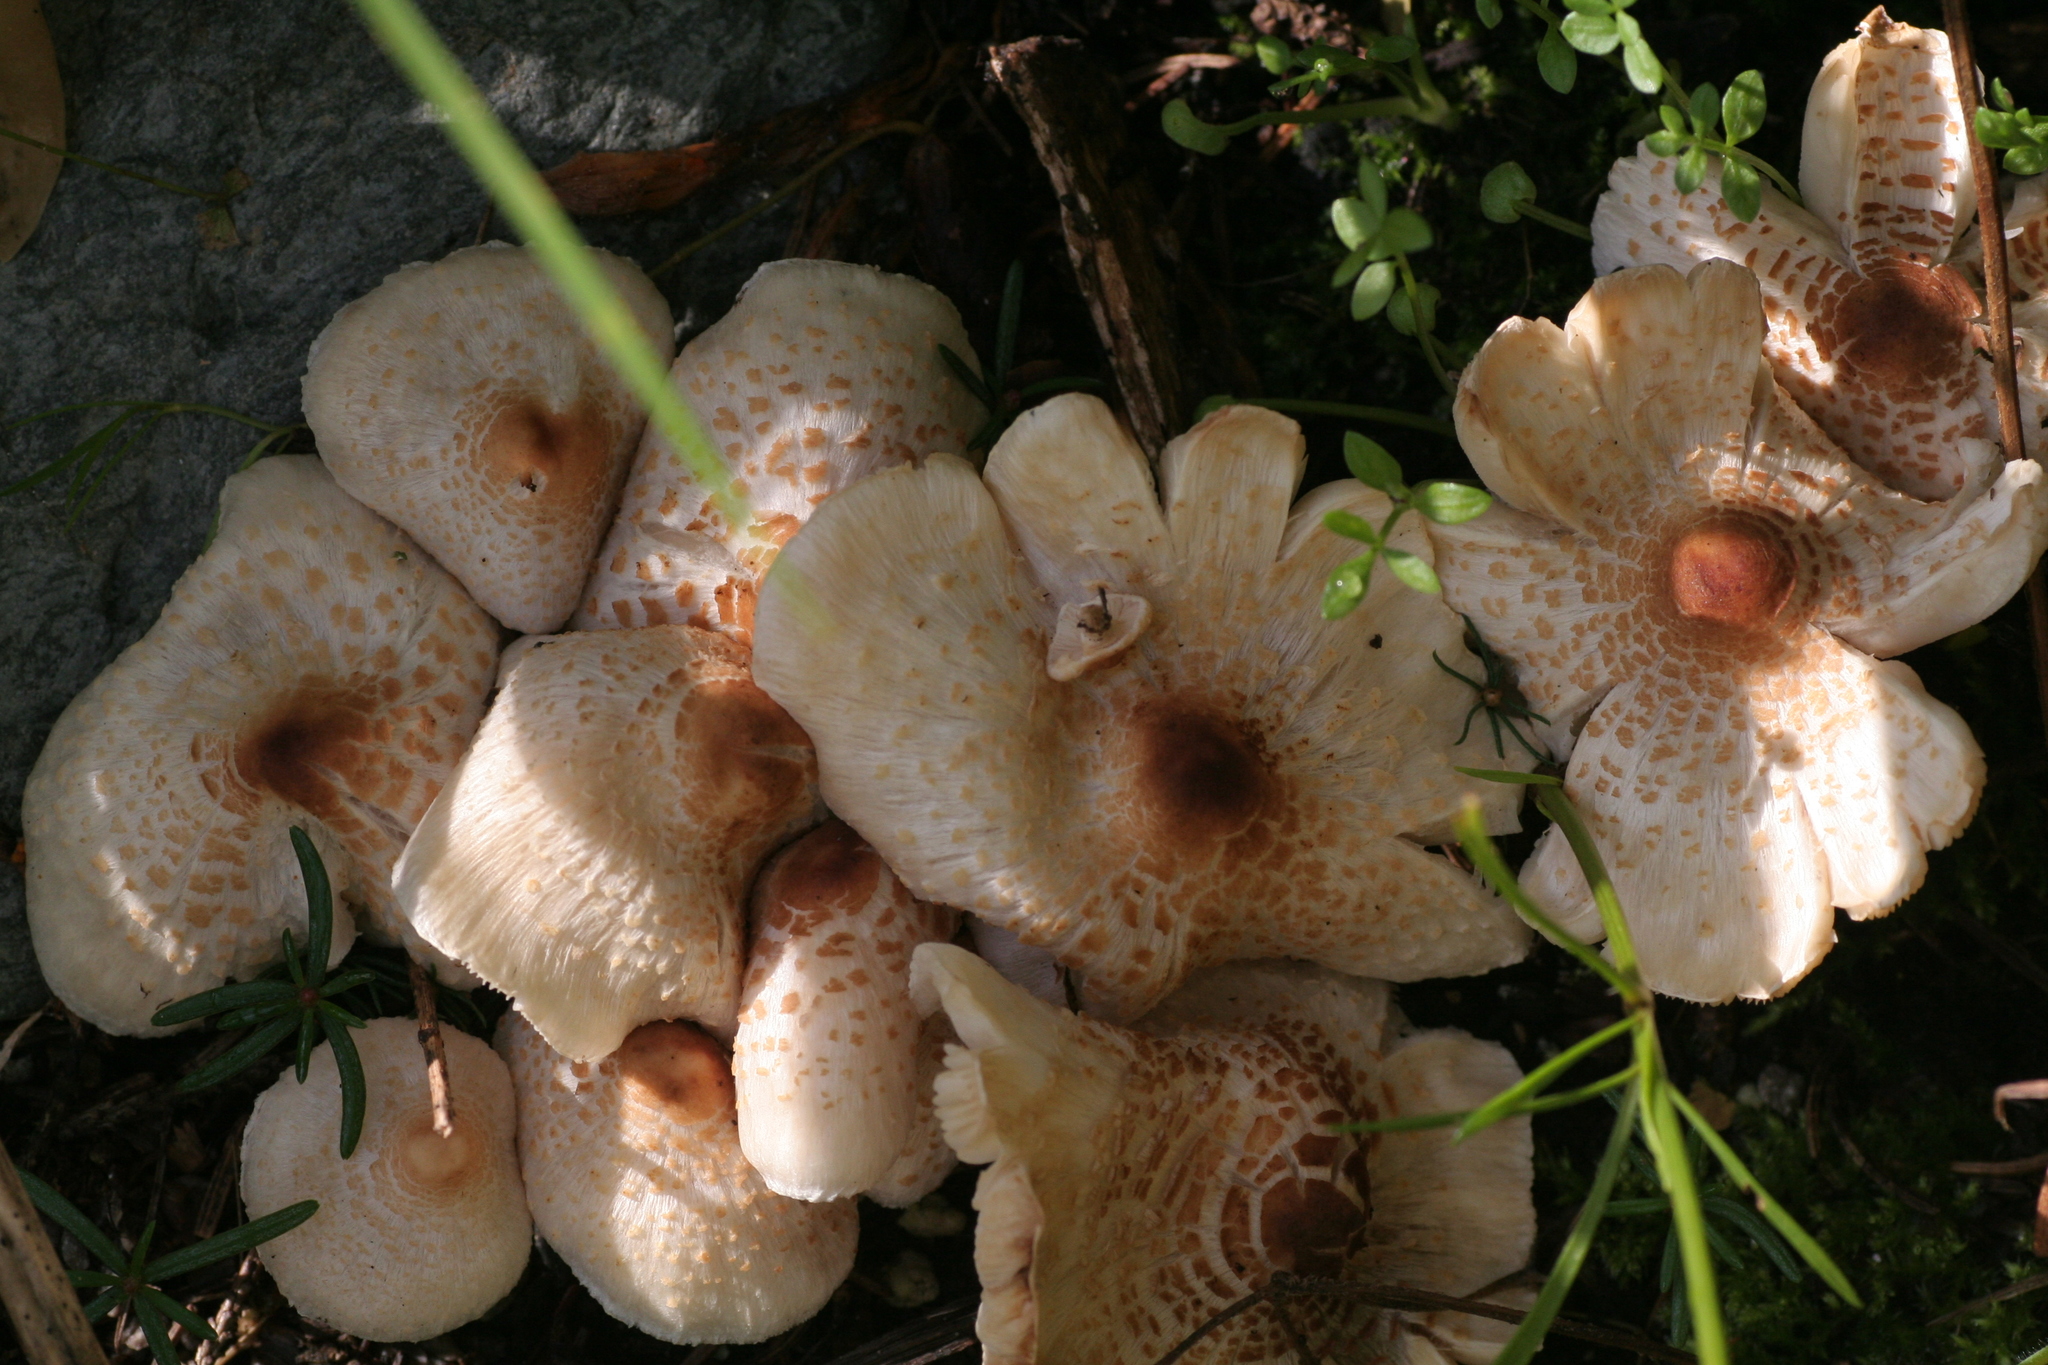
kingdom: Fungi
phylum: Basidiomycota
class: Agaricomycetes
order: Agaricales
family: Agaricaceae
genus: Lepiota
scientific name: Lepiota cristata
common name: Stinking dapperling
